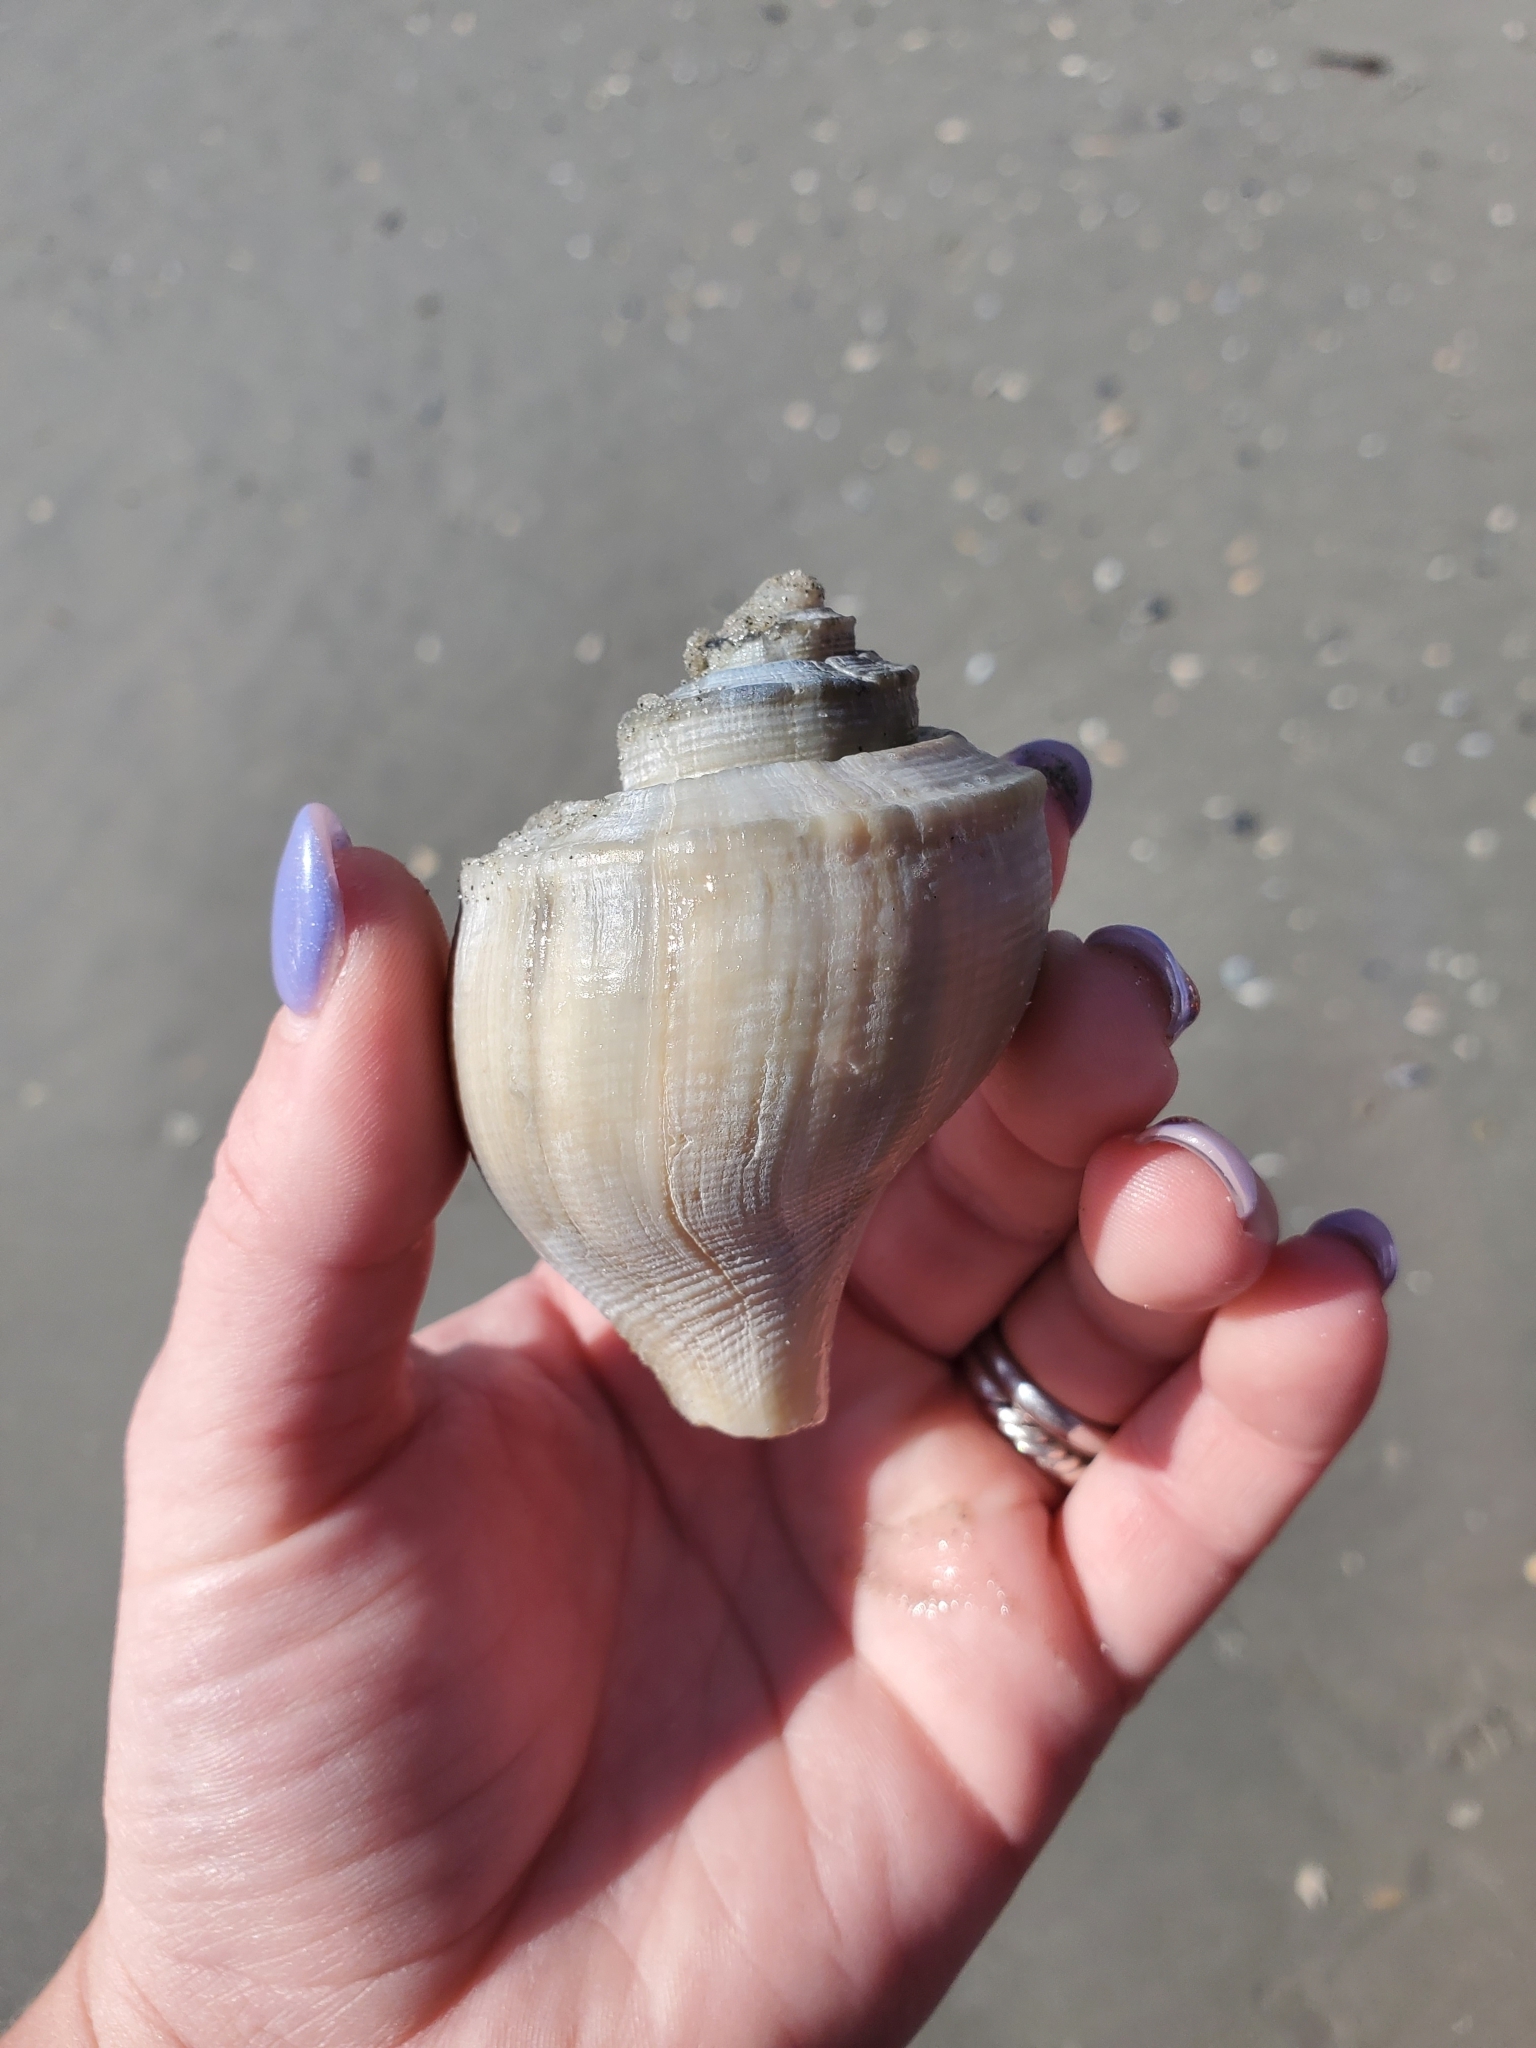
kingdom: Animalia
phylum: Mollusca
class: Gastropoda
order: Neogastropoda
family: Busyconidae
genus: Busycotypus
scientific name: Busycotypus canaliculatus
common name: Channeled whelk
